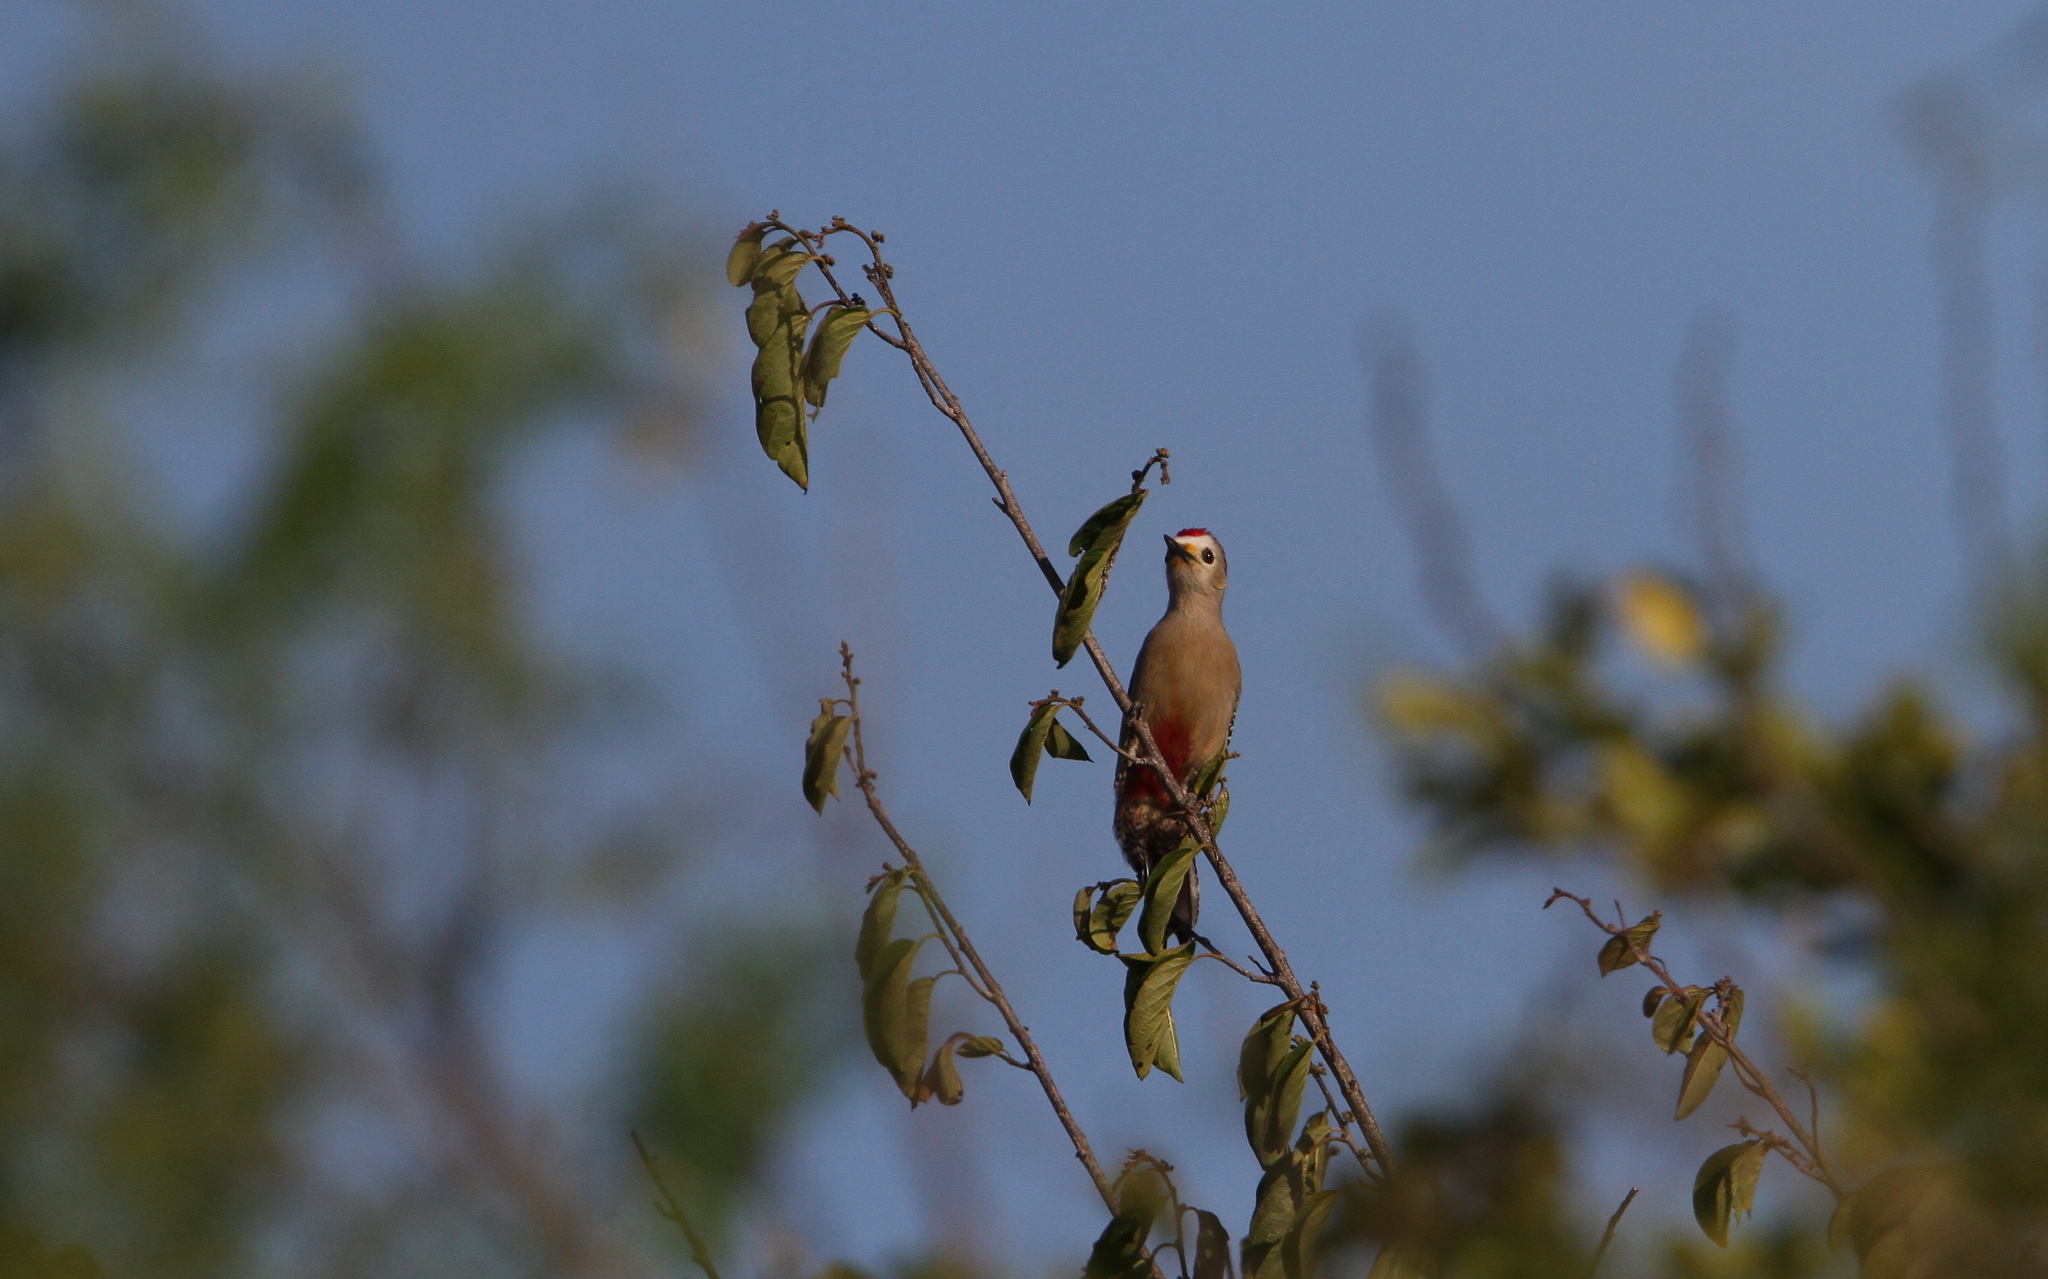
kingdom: Animalia
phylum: Chordata
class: Aves
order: Piciformes
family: Picidae
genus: Melanerpes
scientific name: Melanerpes pygmaeus
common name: Yucatan woodpecker
